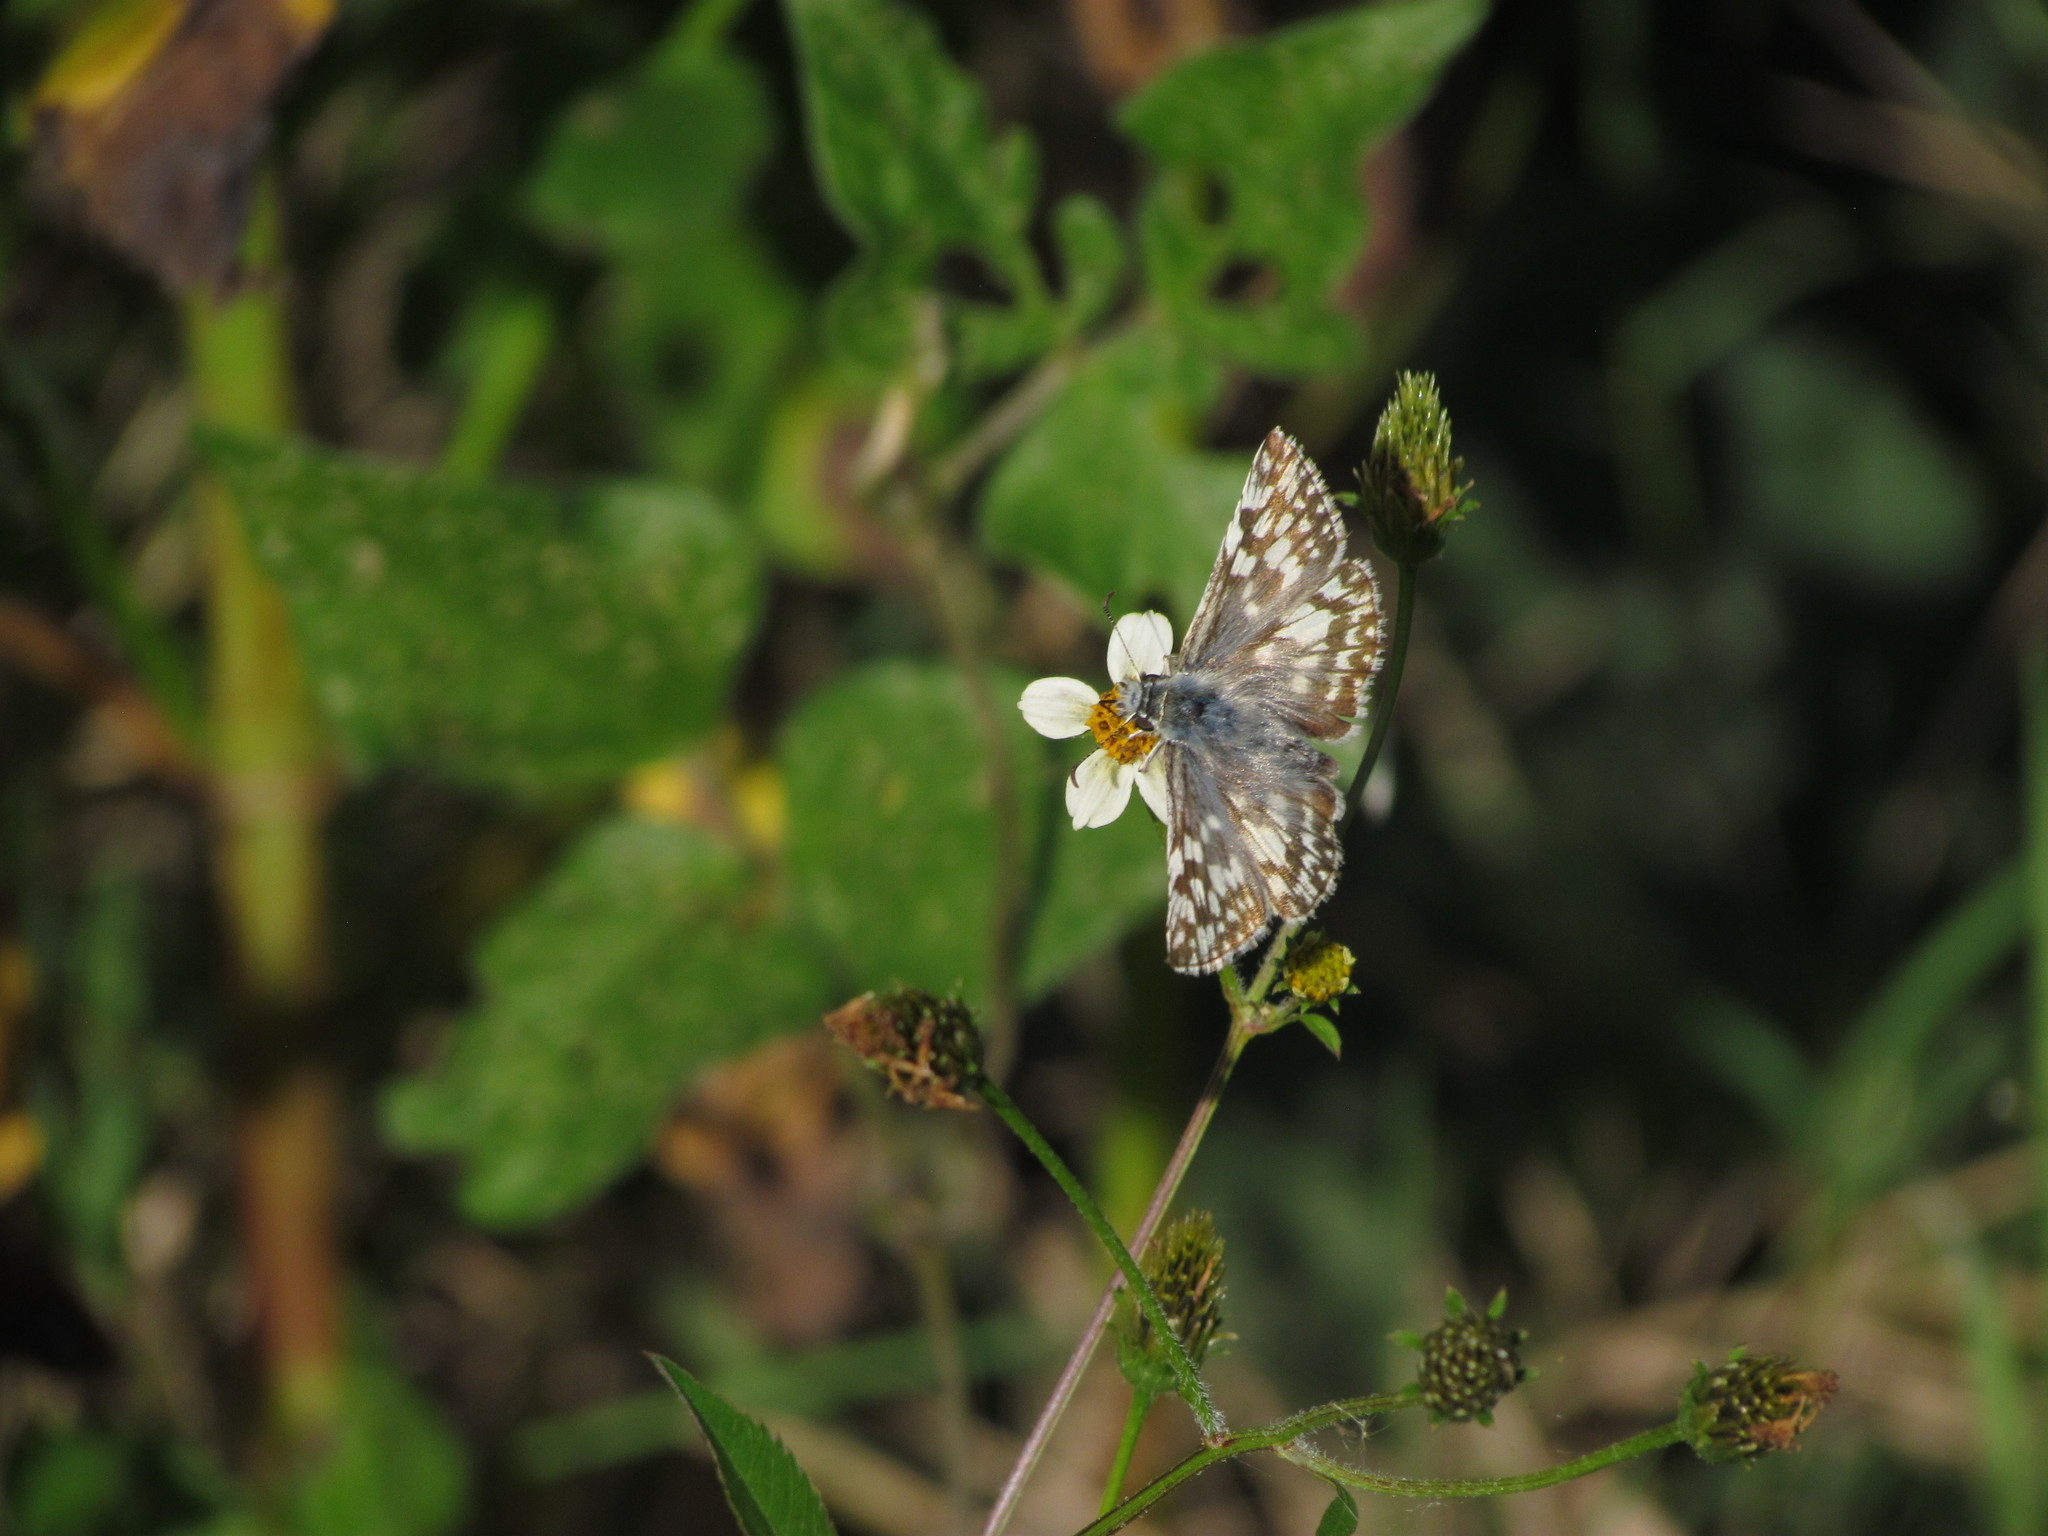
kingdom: Animalia
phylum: Arthropoda
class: Insecta
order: Lepidoptera
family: Hesperiidae
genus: Heliopetes
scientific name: Heliopetes americanus
